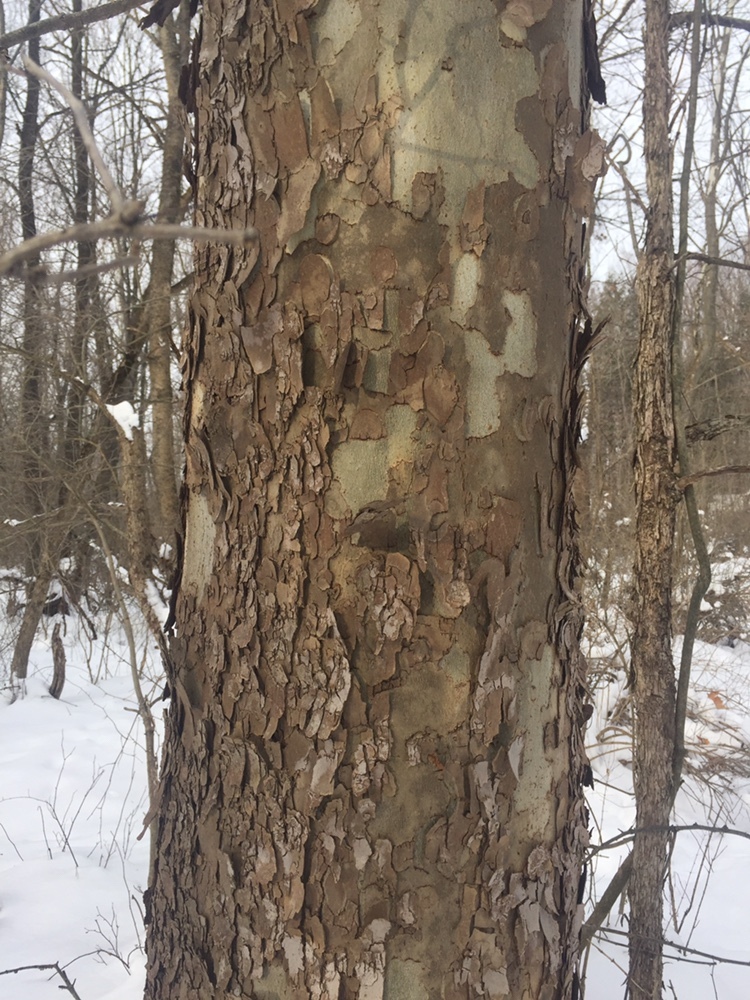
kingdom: Plantae
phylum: Tracheophyta
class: Magnoliopsida
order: Proteales
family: Platanaceae
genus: Platanus
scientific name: Platanus occidentalis
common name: American sycamore
